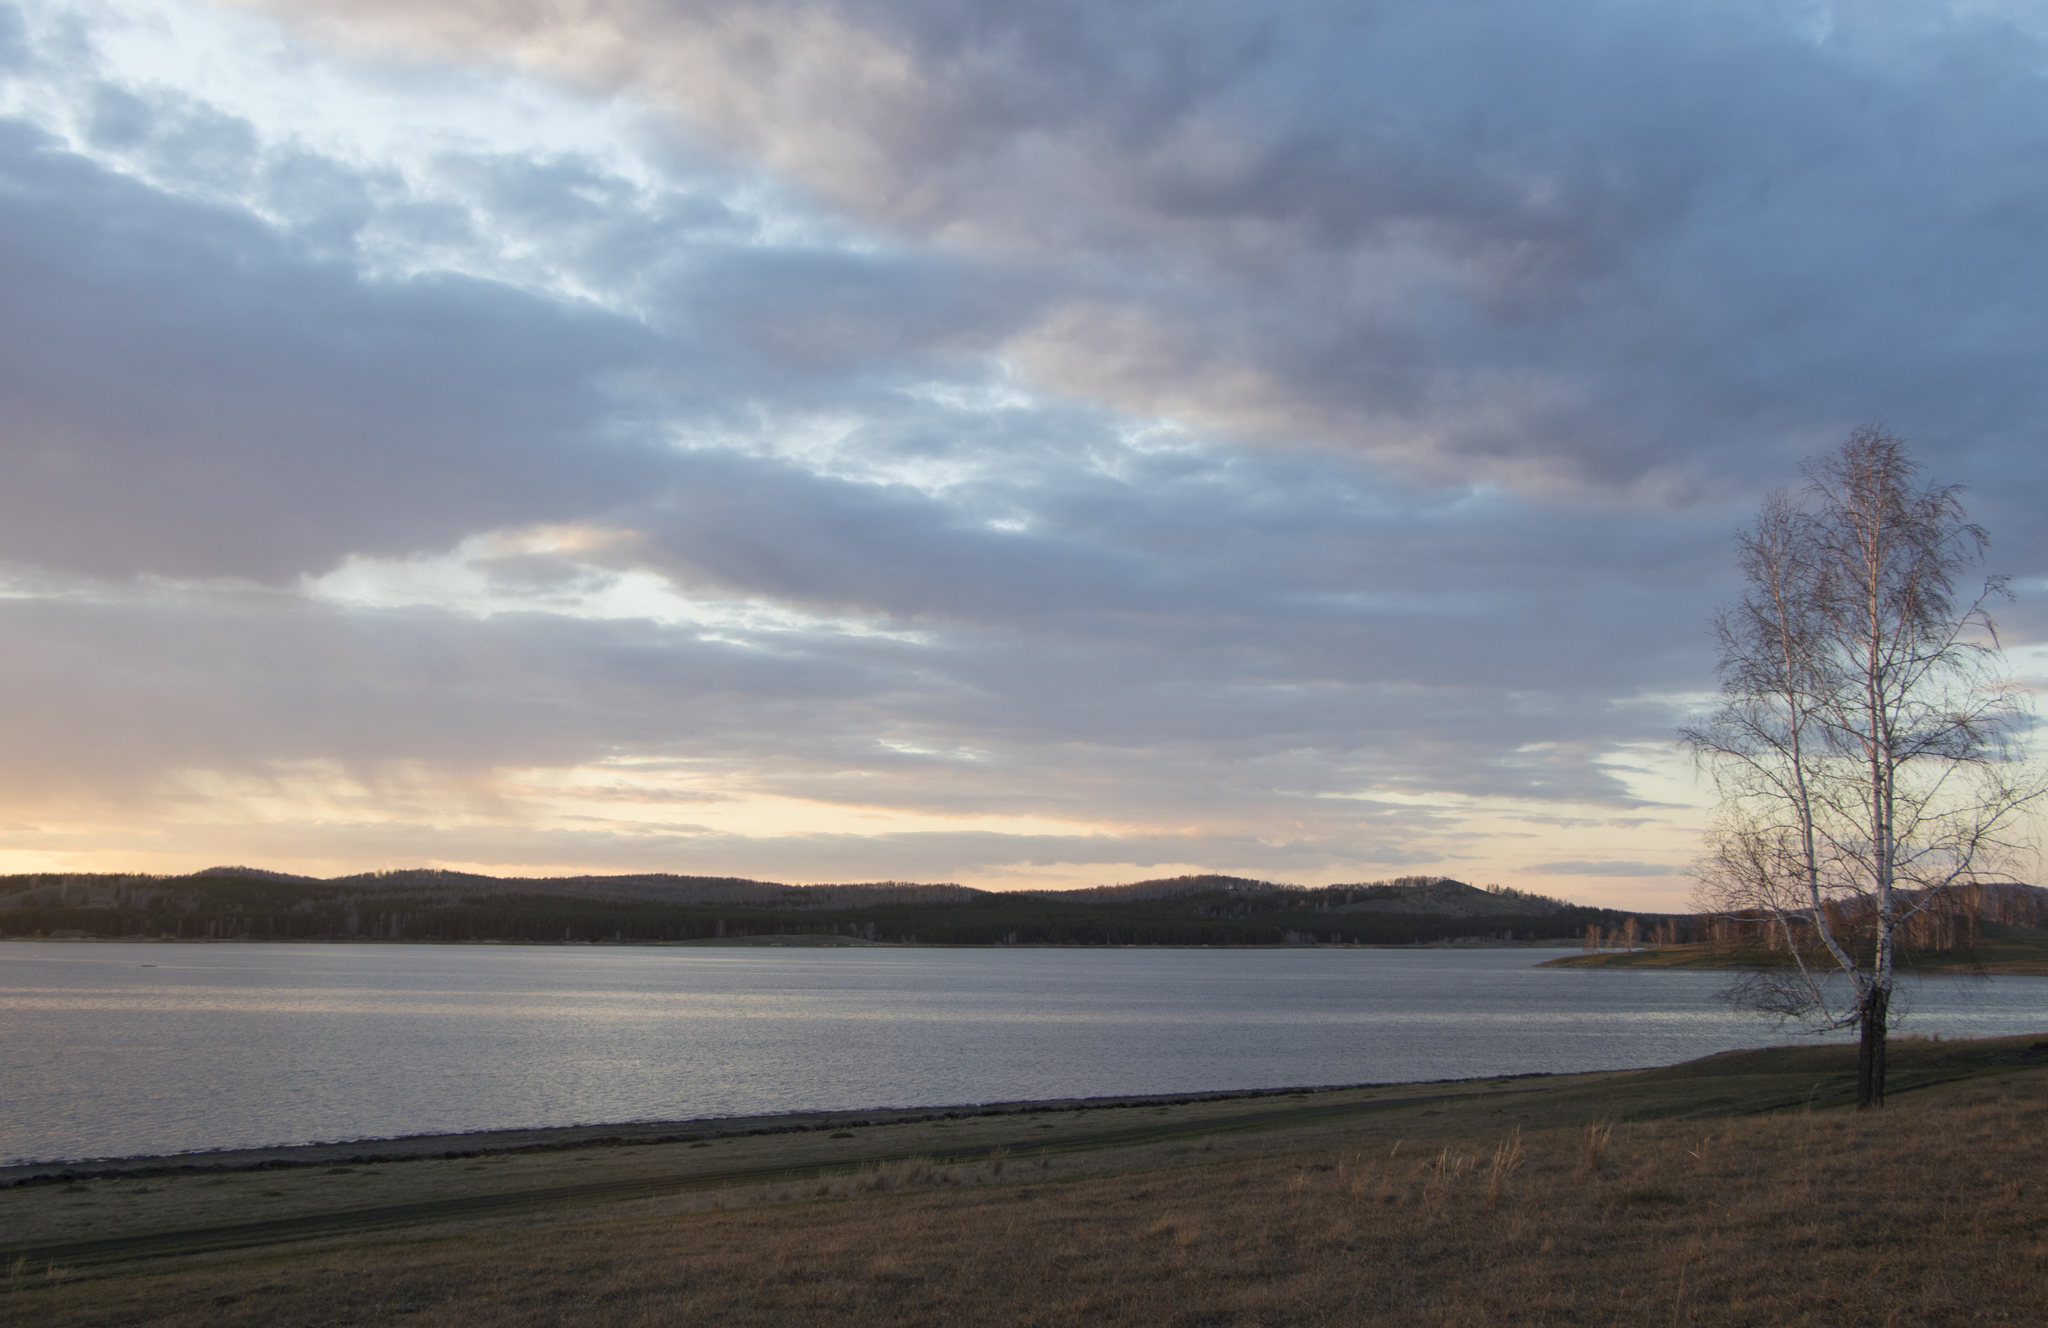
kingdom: Plantae
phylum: Tracheophyta
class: Magnoliopsida
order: Fagales
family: Betulaceae
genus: Betula
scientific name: Betula pendula
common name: Silver birch
